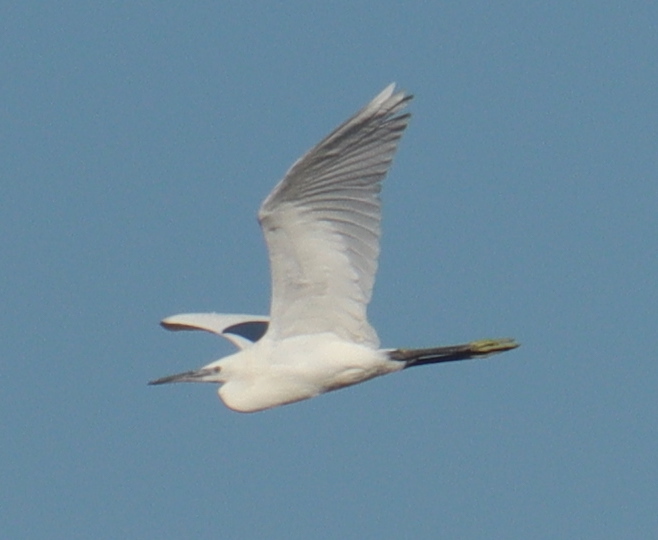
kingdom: Animalia
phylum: Chordata
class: Aves
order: Pelecaniformes
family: Ardeidae
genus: Egretta
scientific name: Egretta garzetta
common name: Little egret
